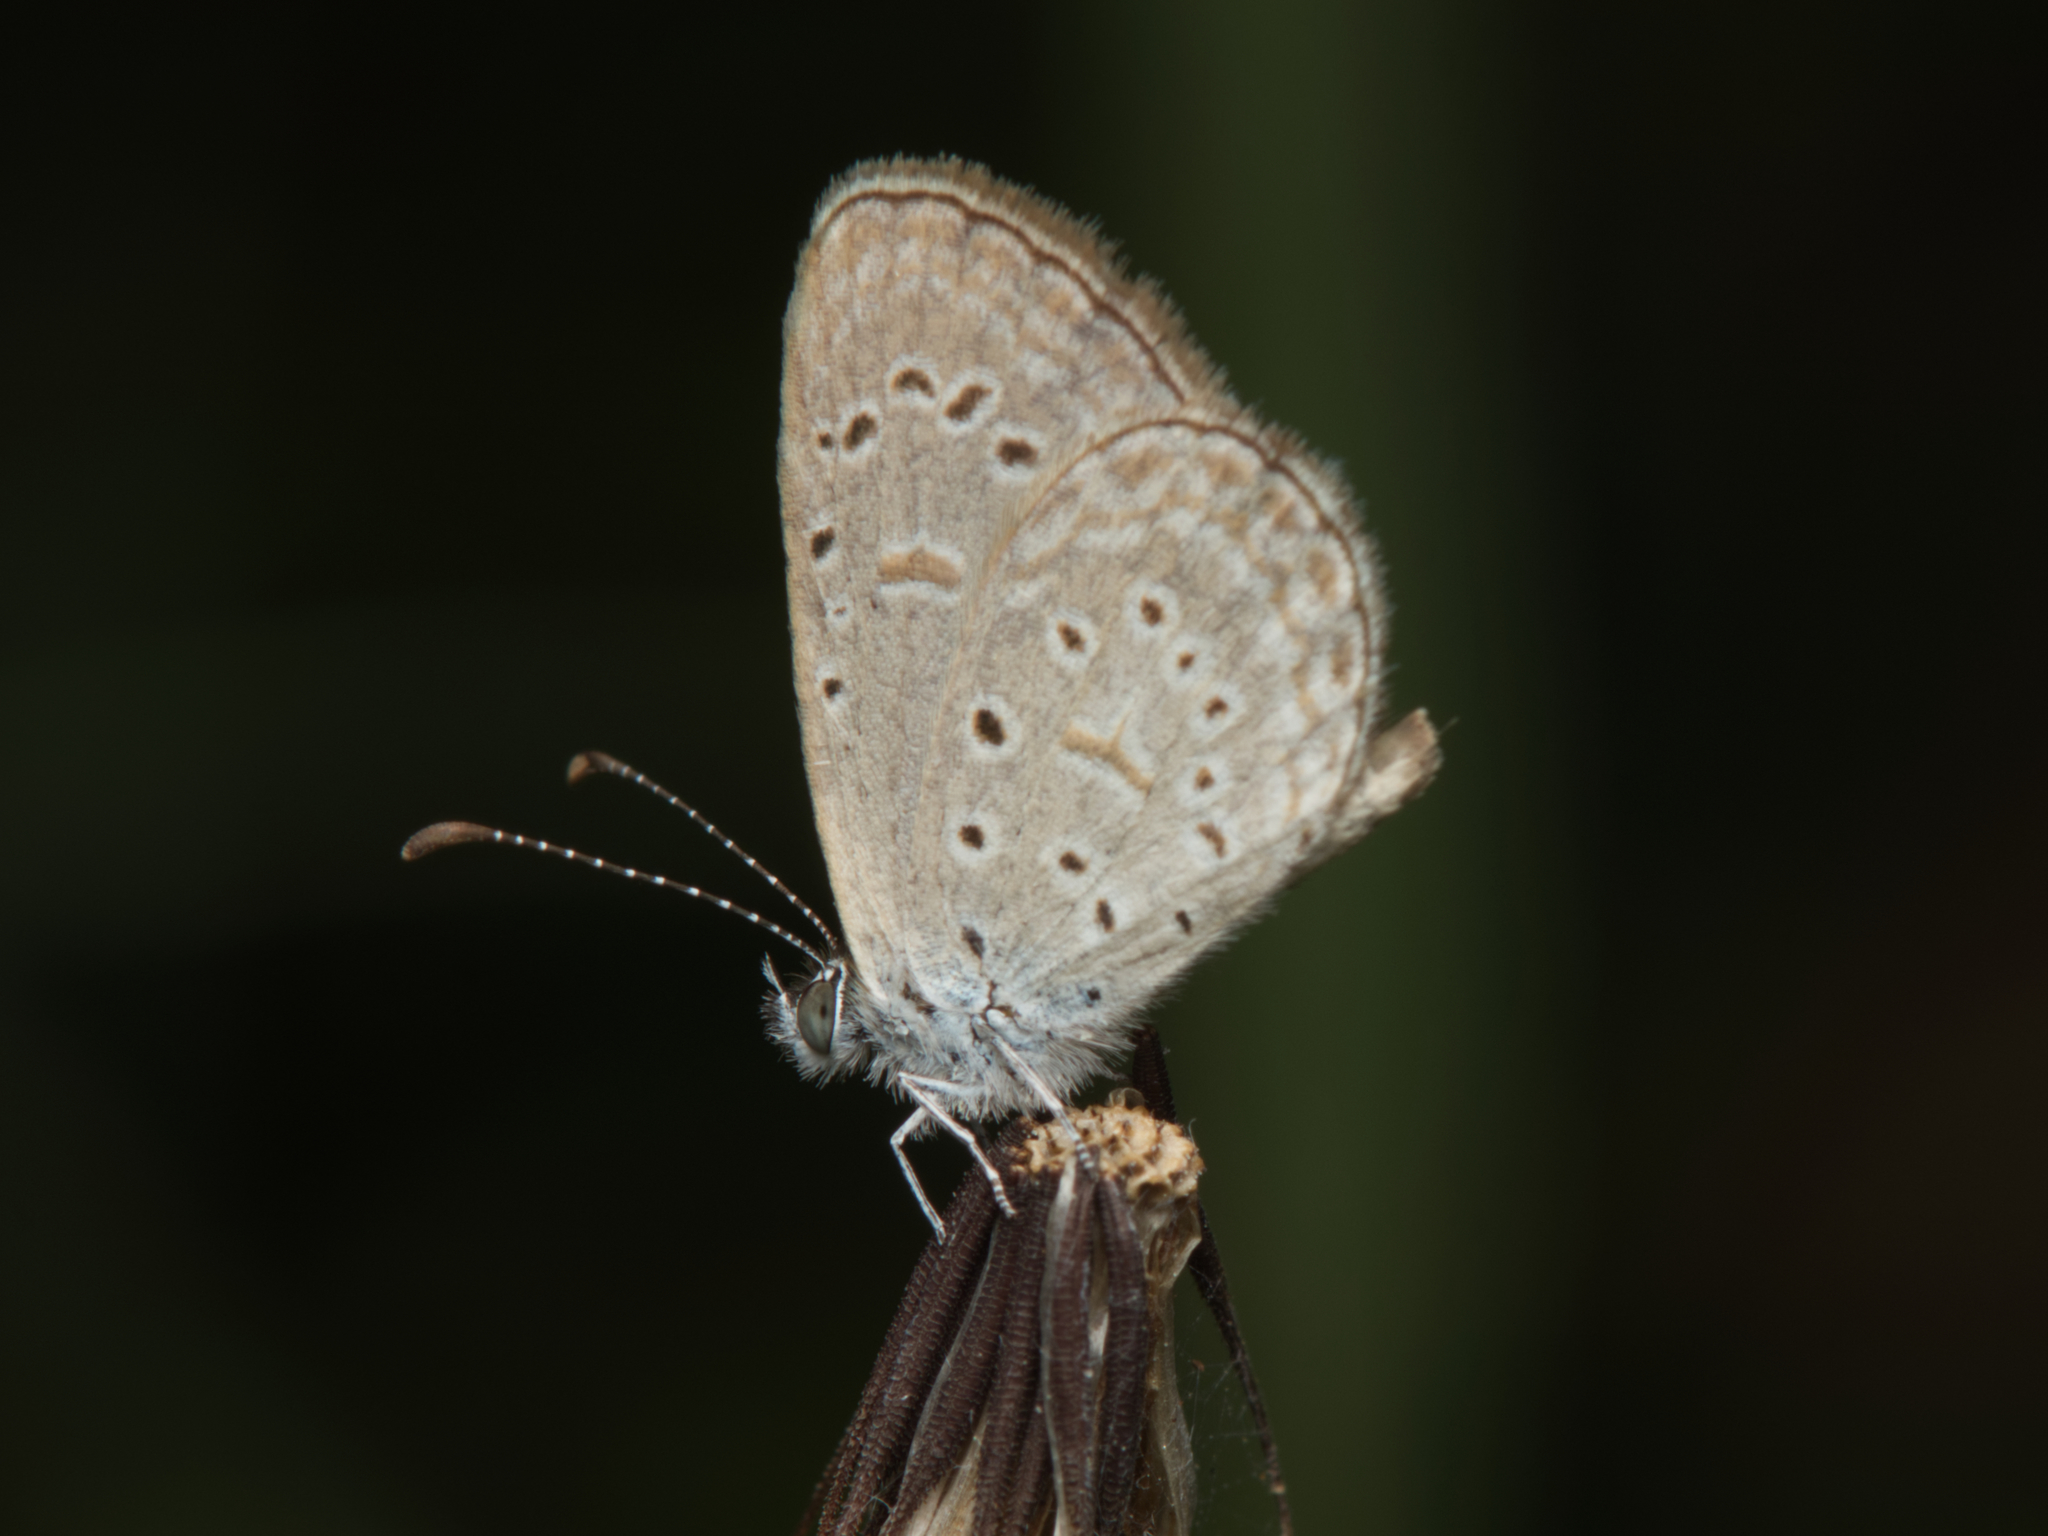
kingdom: Animalia
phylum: Arthropoda
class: Insecta
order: Lepidoptera
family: Lycaenidae
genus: Zizula
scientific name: Zizula hylax
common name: Gaika blue
